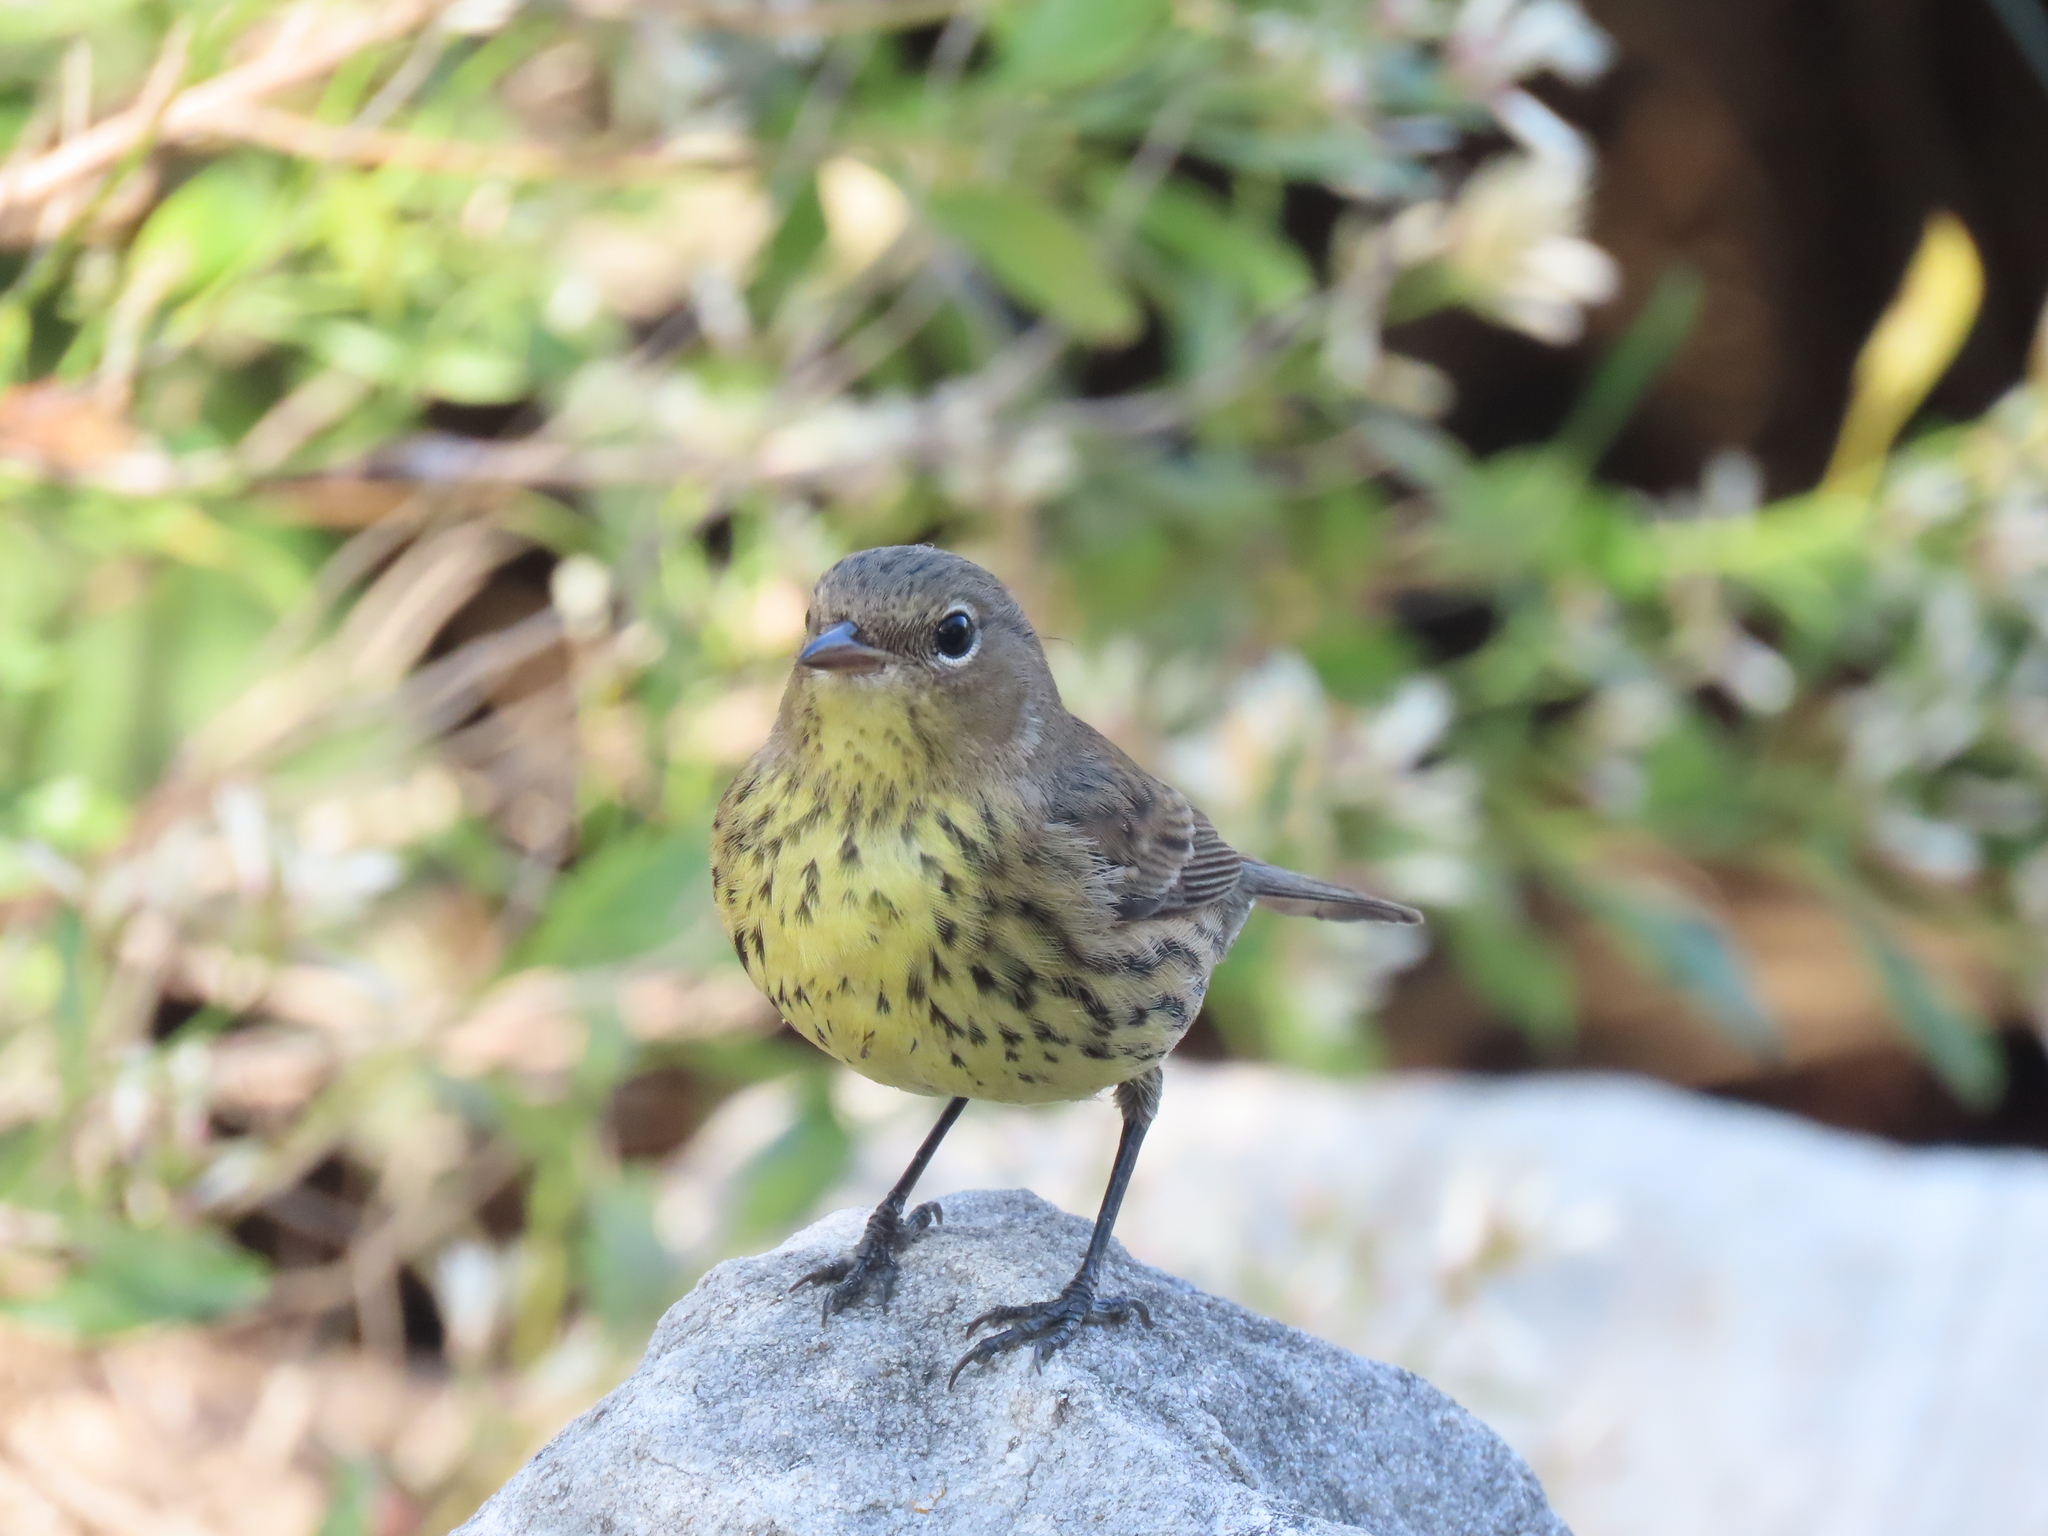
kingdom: Animalia
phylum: Chordata
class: Aves
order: Passeriformes
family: Parulidae
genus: Setophaga
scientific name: Setophaga kirtlandii
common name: Kirtland's warbler
